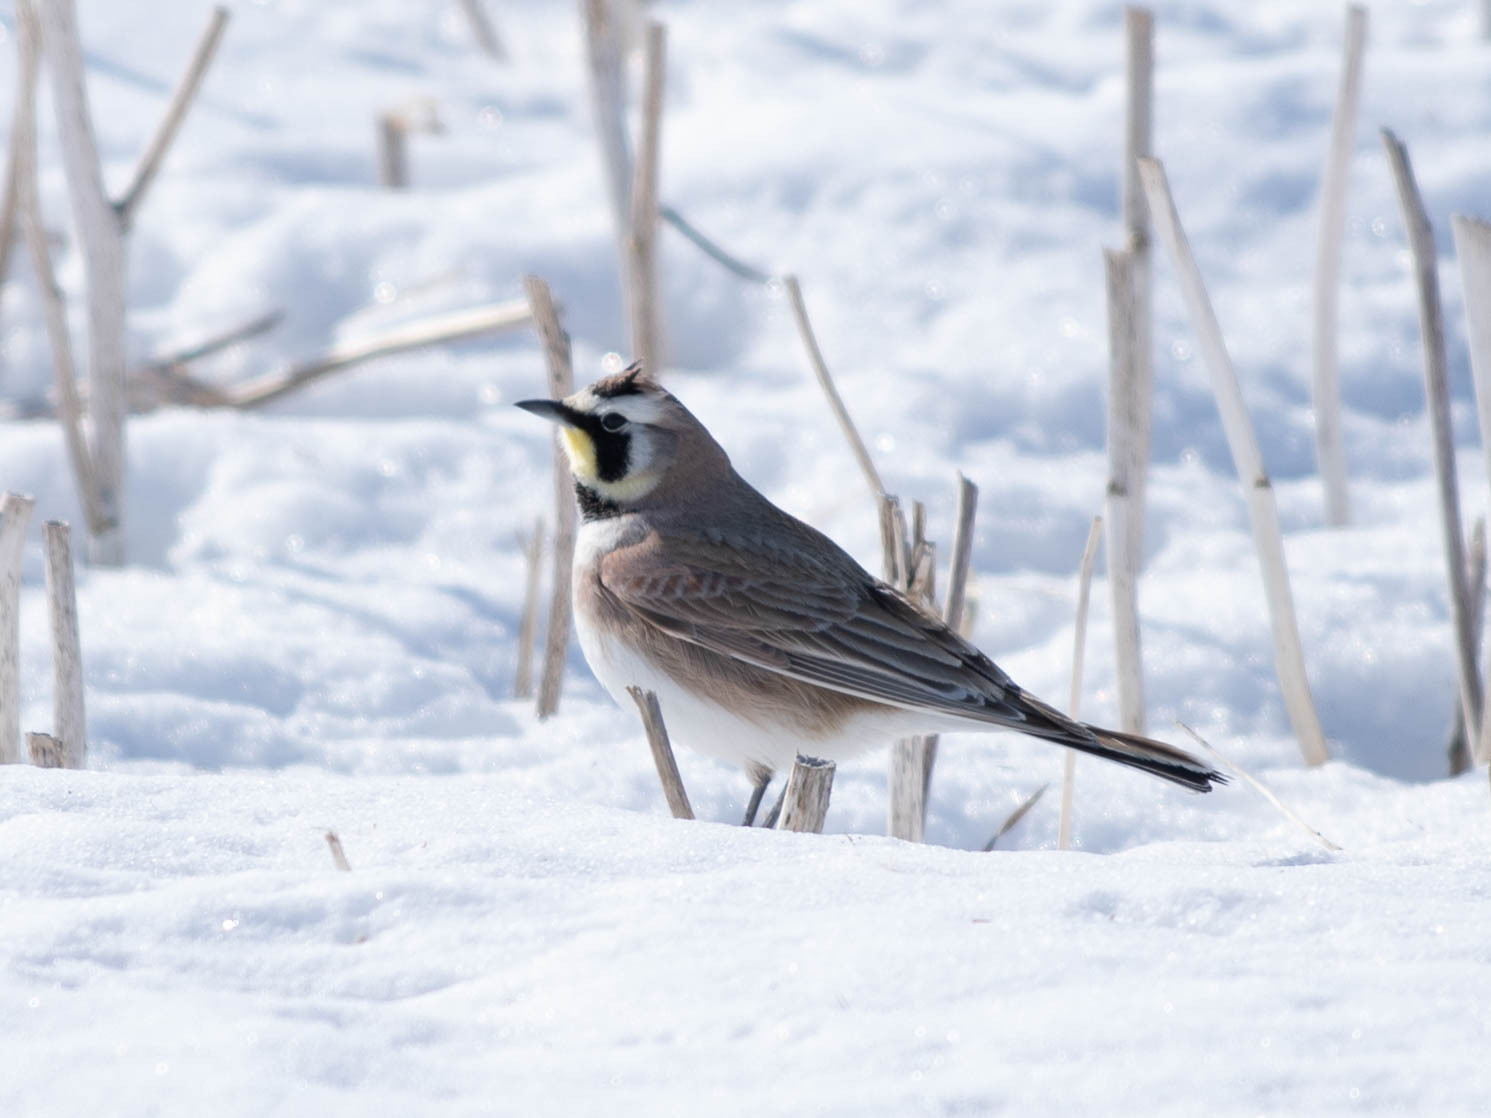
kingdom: Animalia
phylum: Chordata
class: Aves
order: Passeriformes
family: Alaudidae
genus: Eremophila
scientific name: Eremophila alpestris
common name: Horned lark
